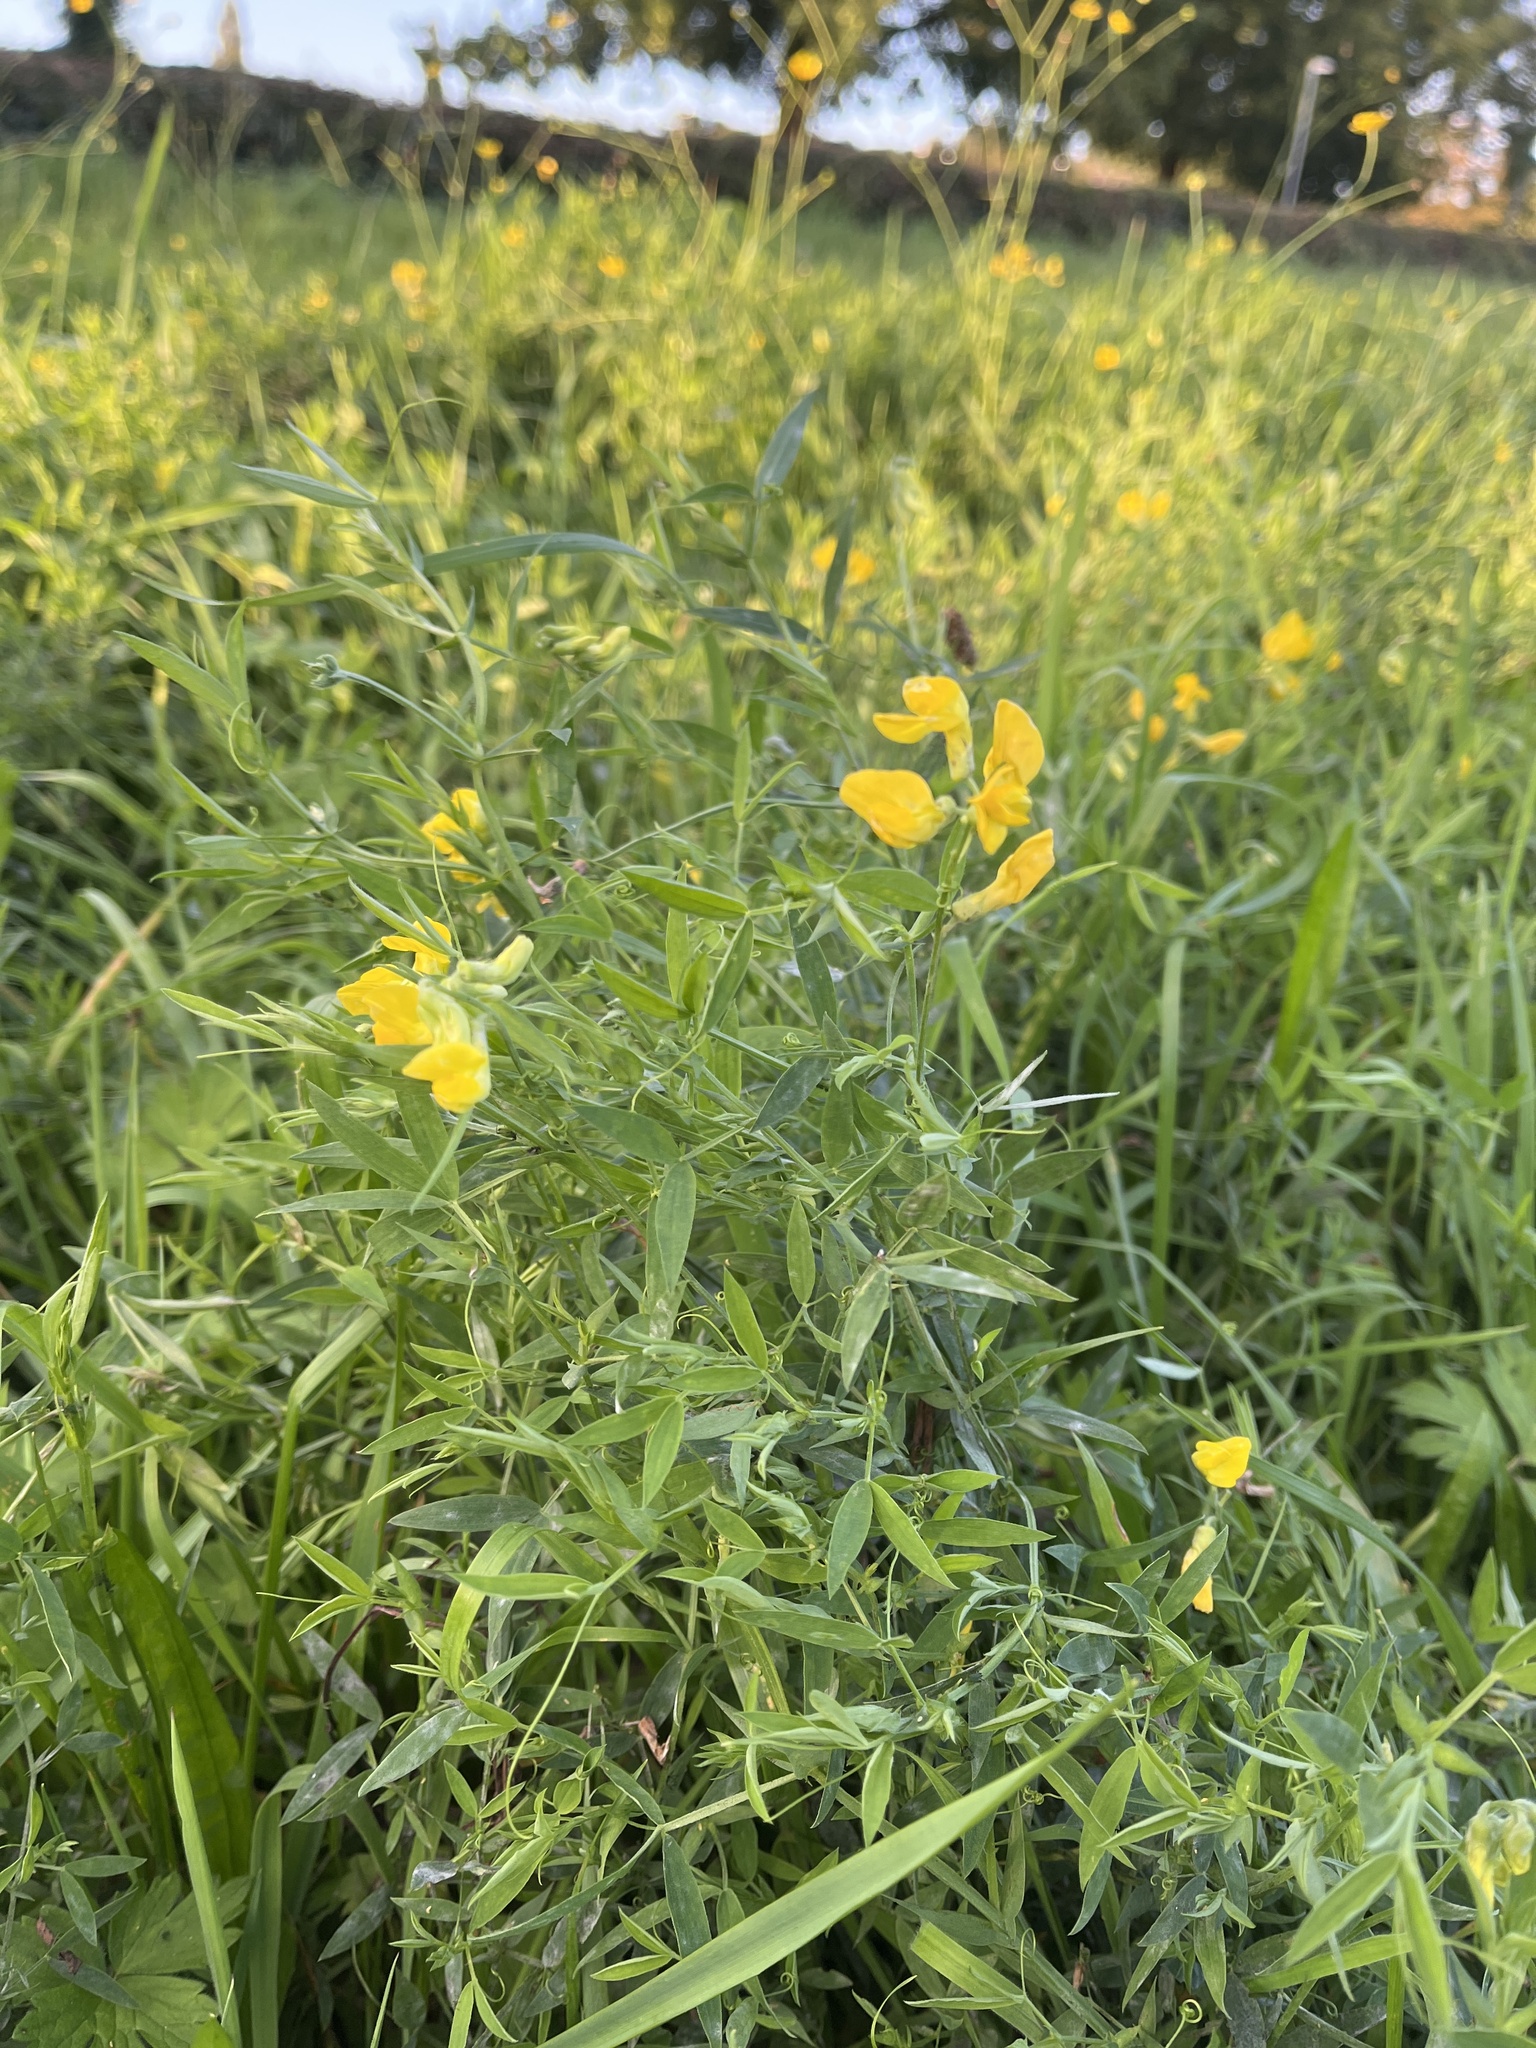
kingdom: Plantae
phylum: Tracheophyta
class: Magnoliopsida
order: Fabales
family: Fabaceae
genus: Lathyrus
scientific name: Lathyrus pratensis
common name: Meadow vetchling
